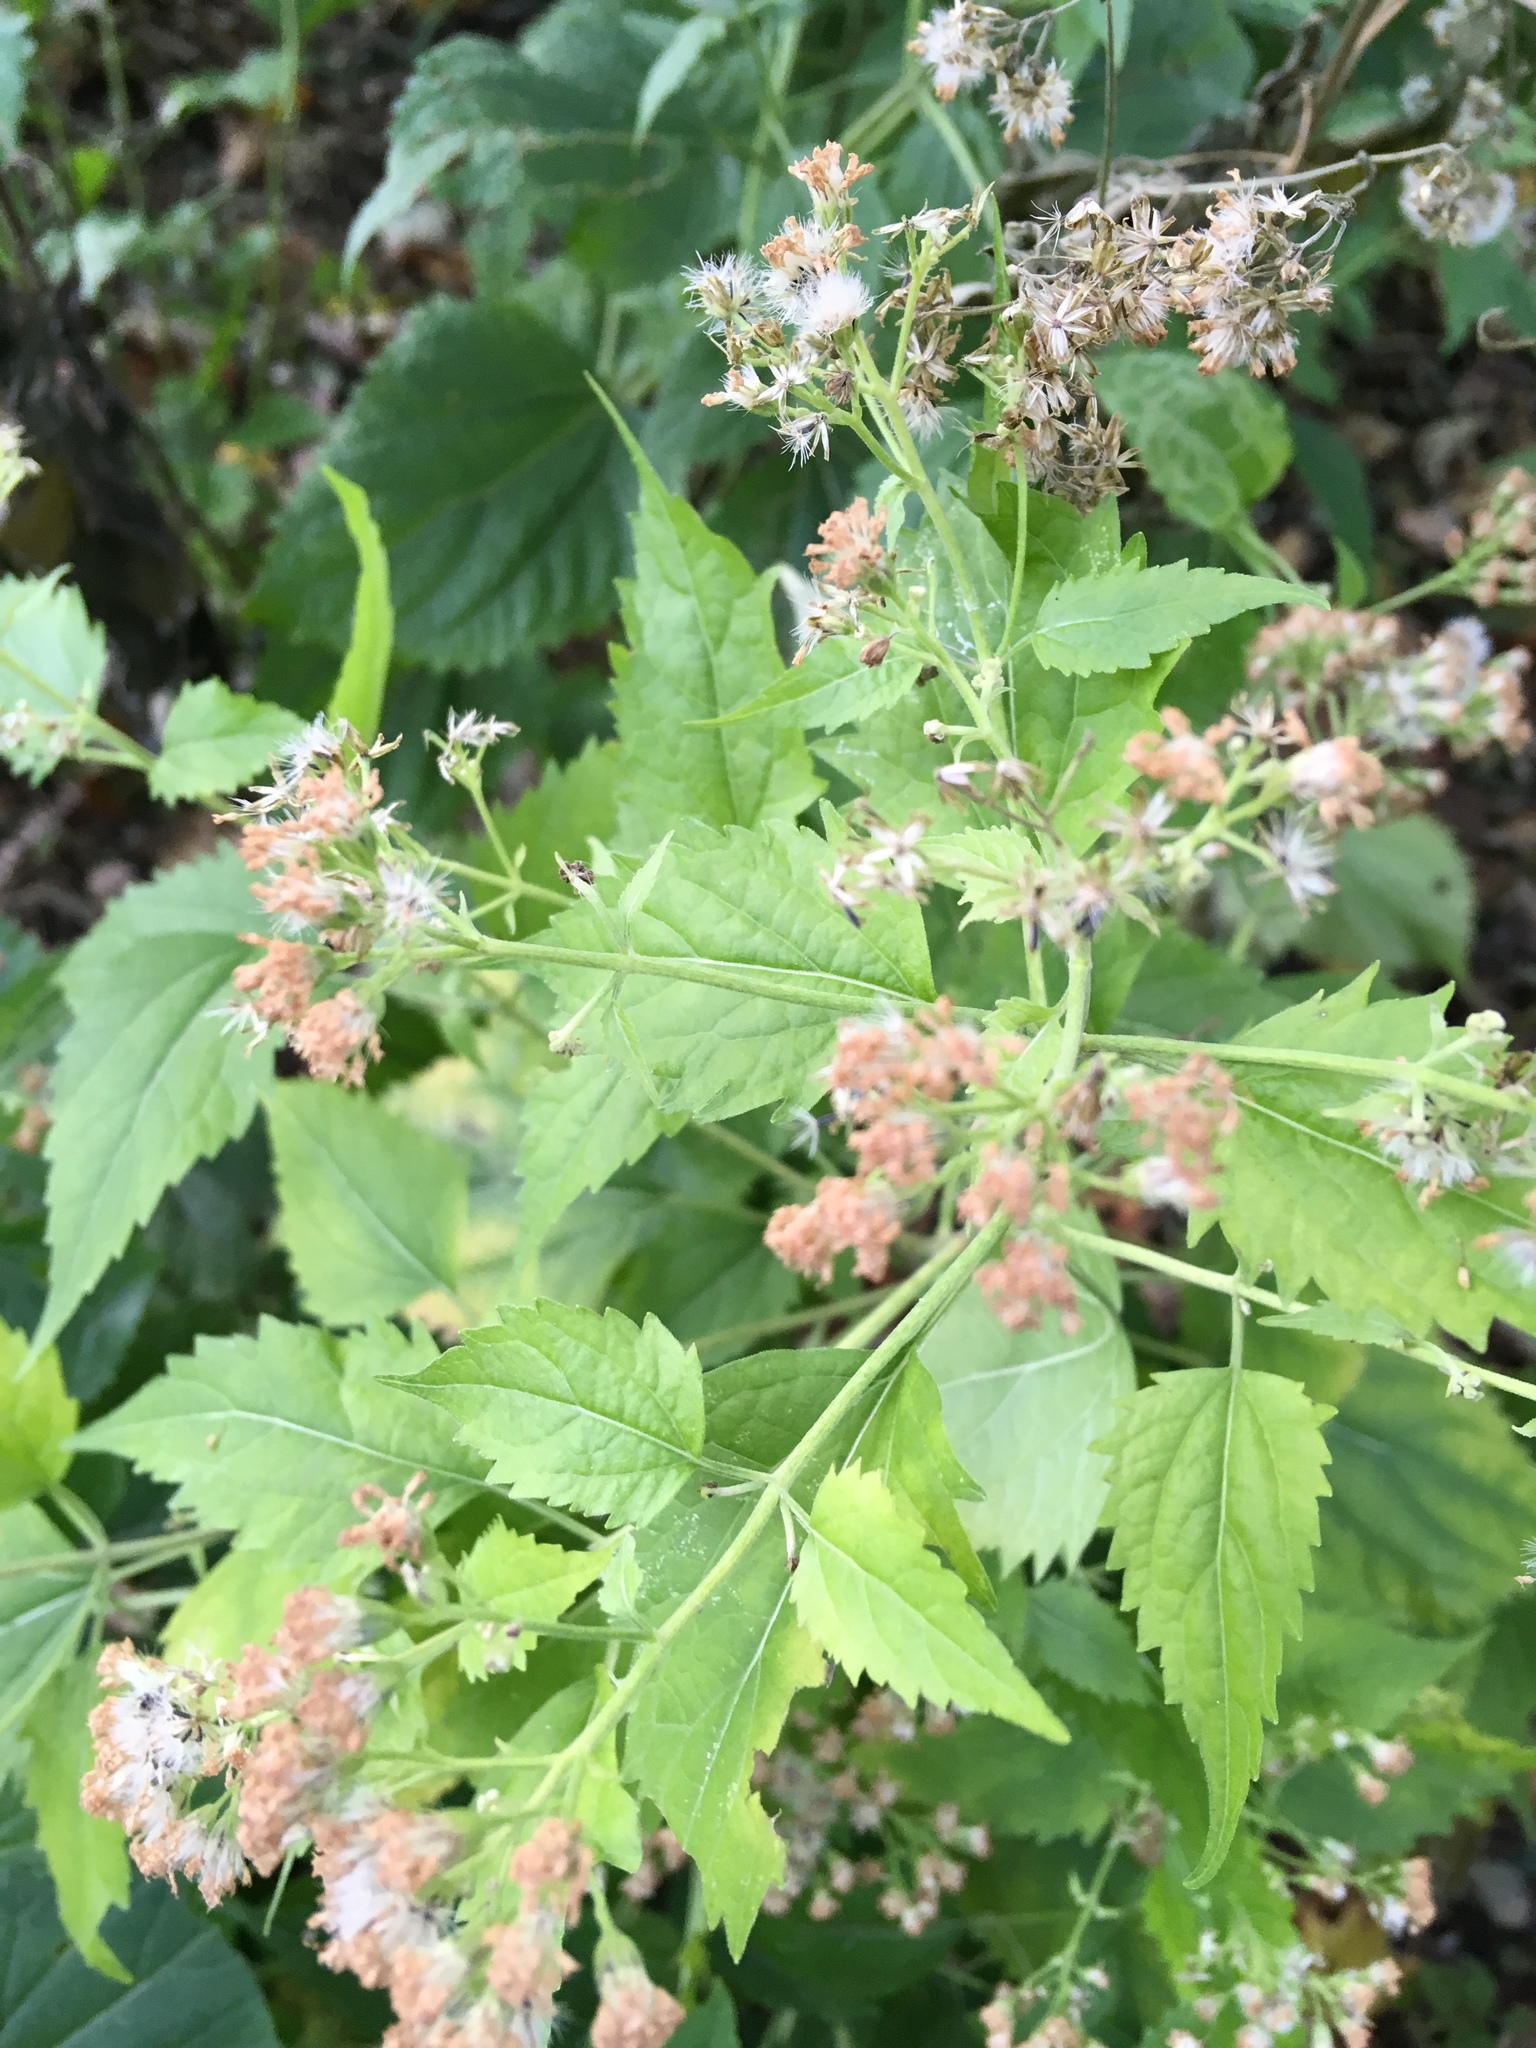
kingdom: Plantae
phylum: Tracheophyta
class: Magnoliopsida
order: Asterales
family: Asteraceae
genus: Ageratina
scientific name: Ageratina altissima
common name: White snakeroot
